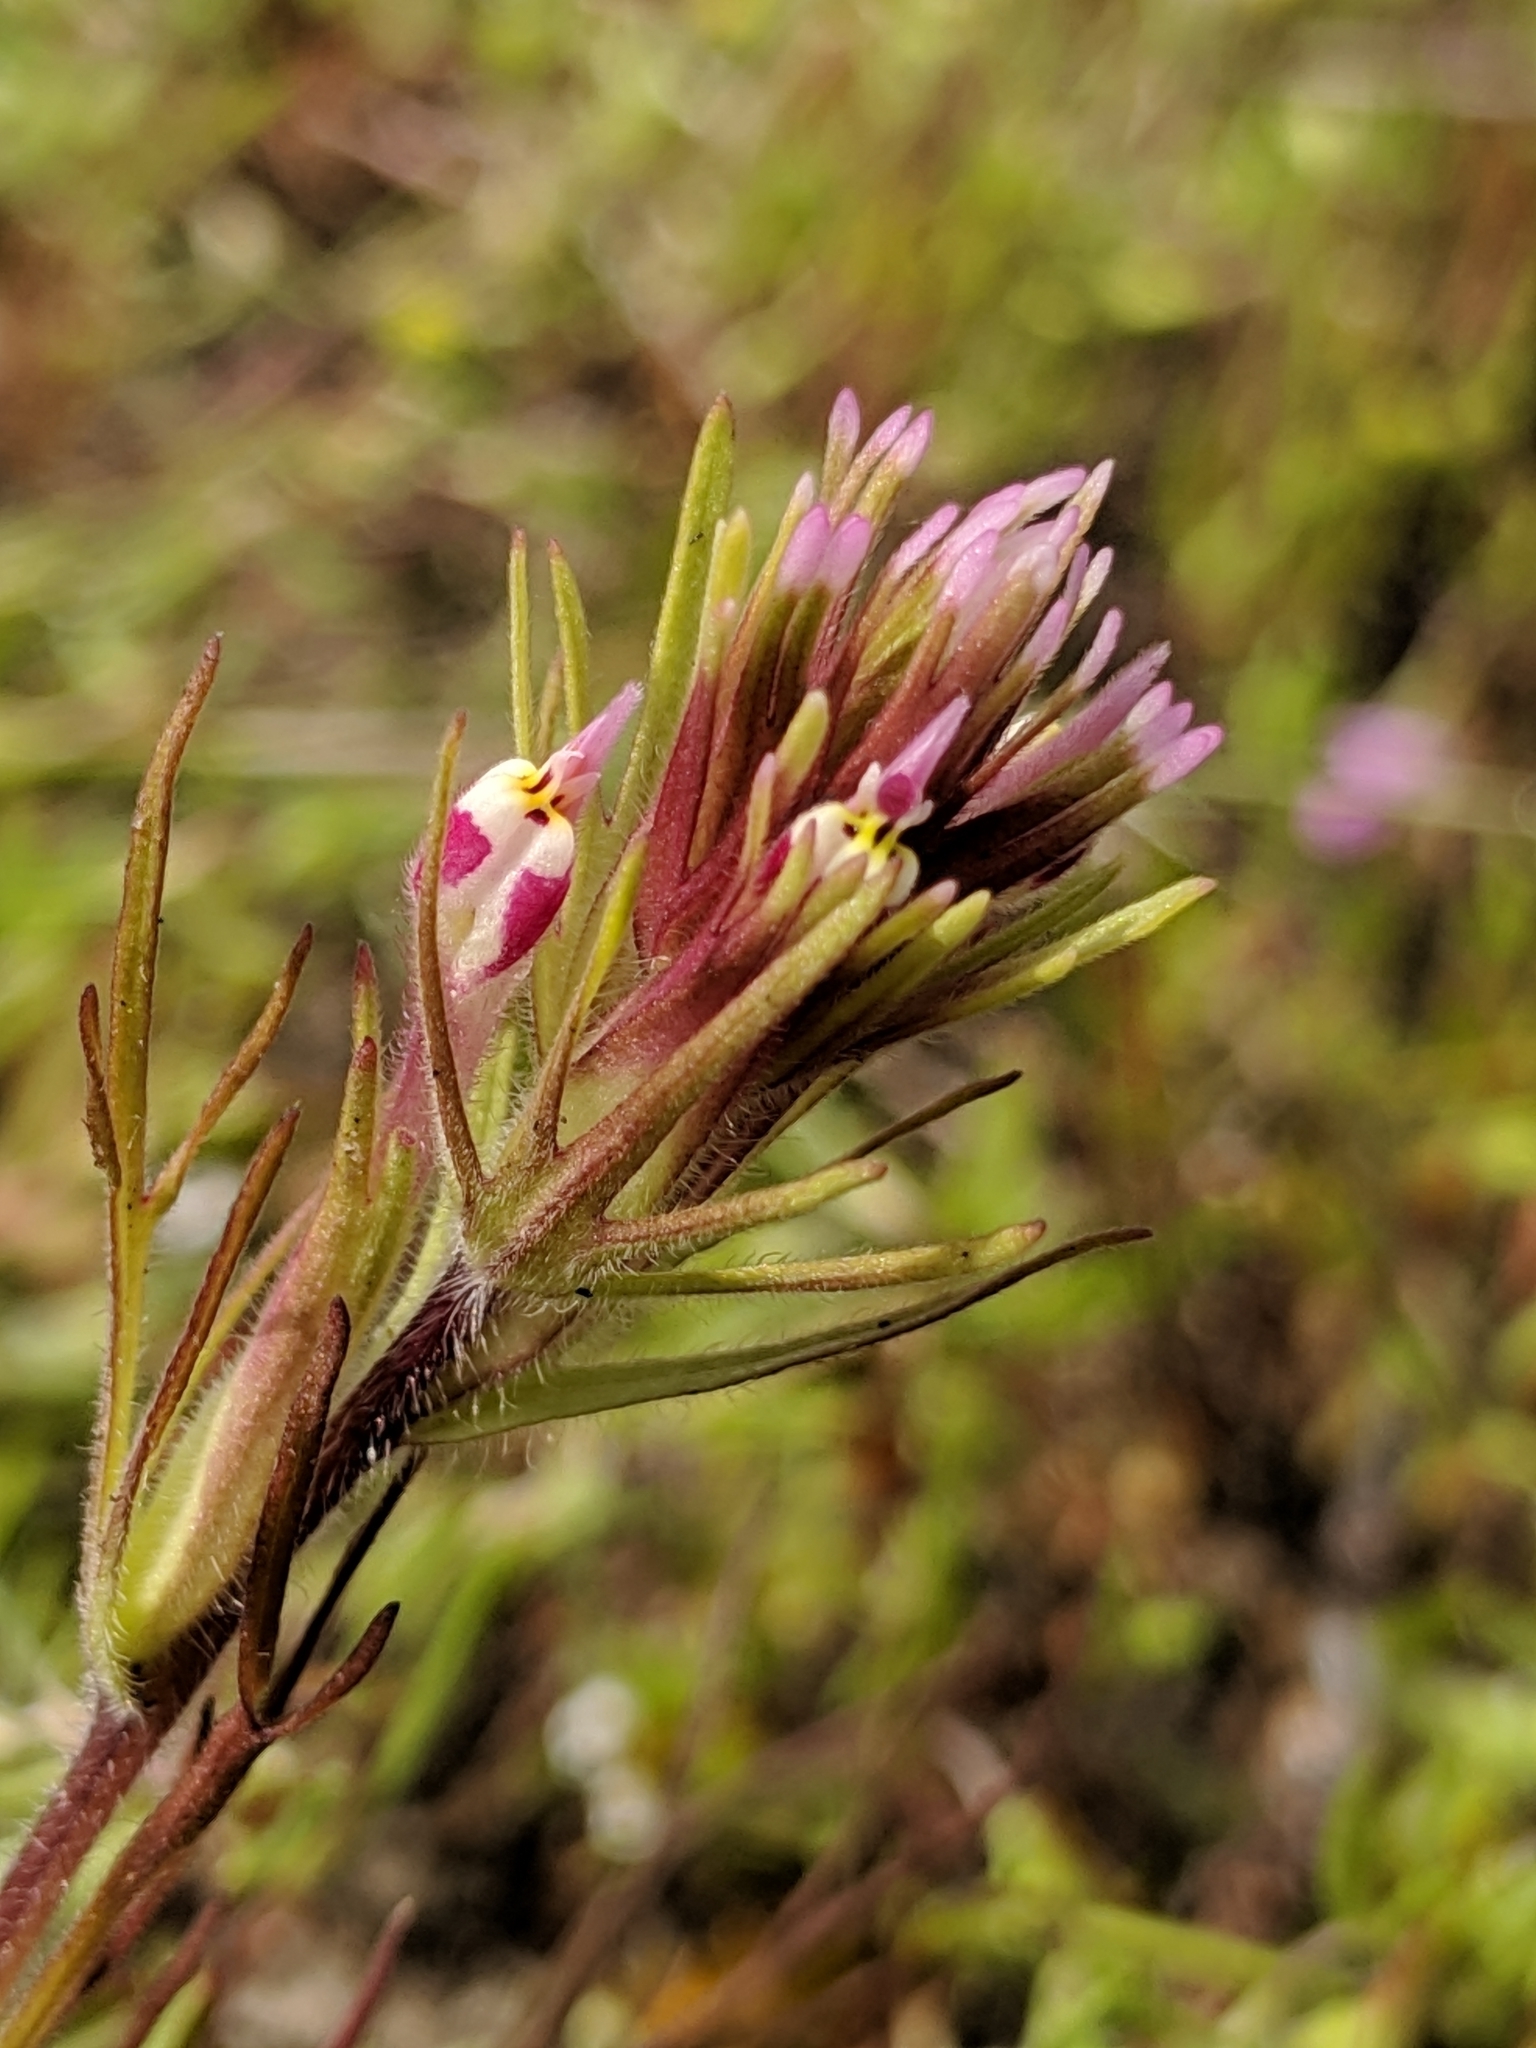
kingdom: Plantae
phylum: Tracheophyta
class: Magnoliopsida
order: Lamiales
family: Orobanchaceae
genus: Castilleja
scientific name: Castilleja brevistyla
